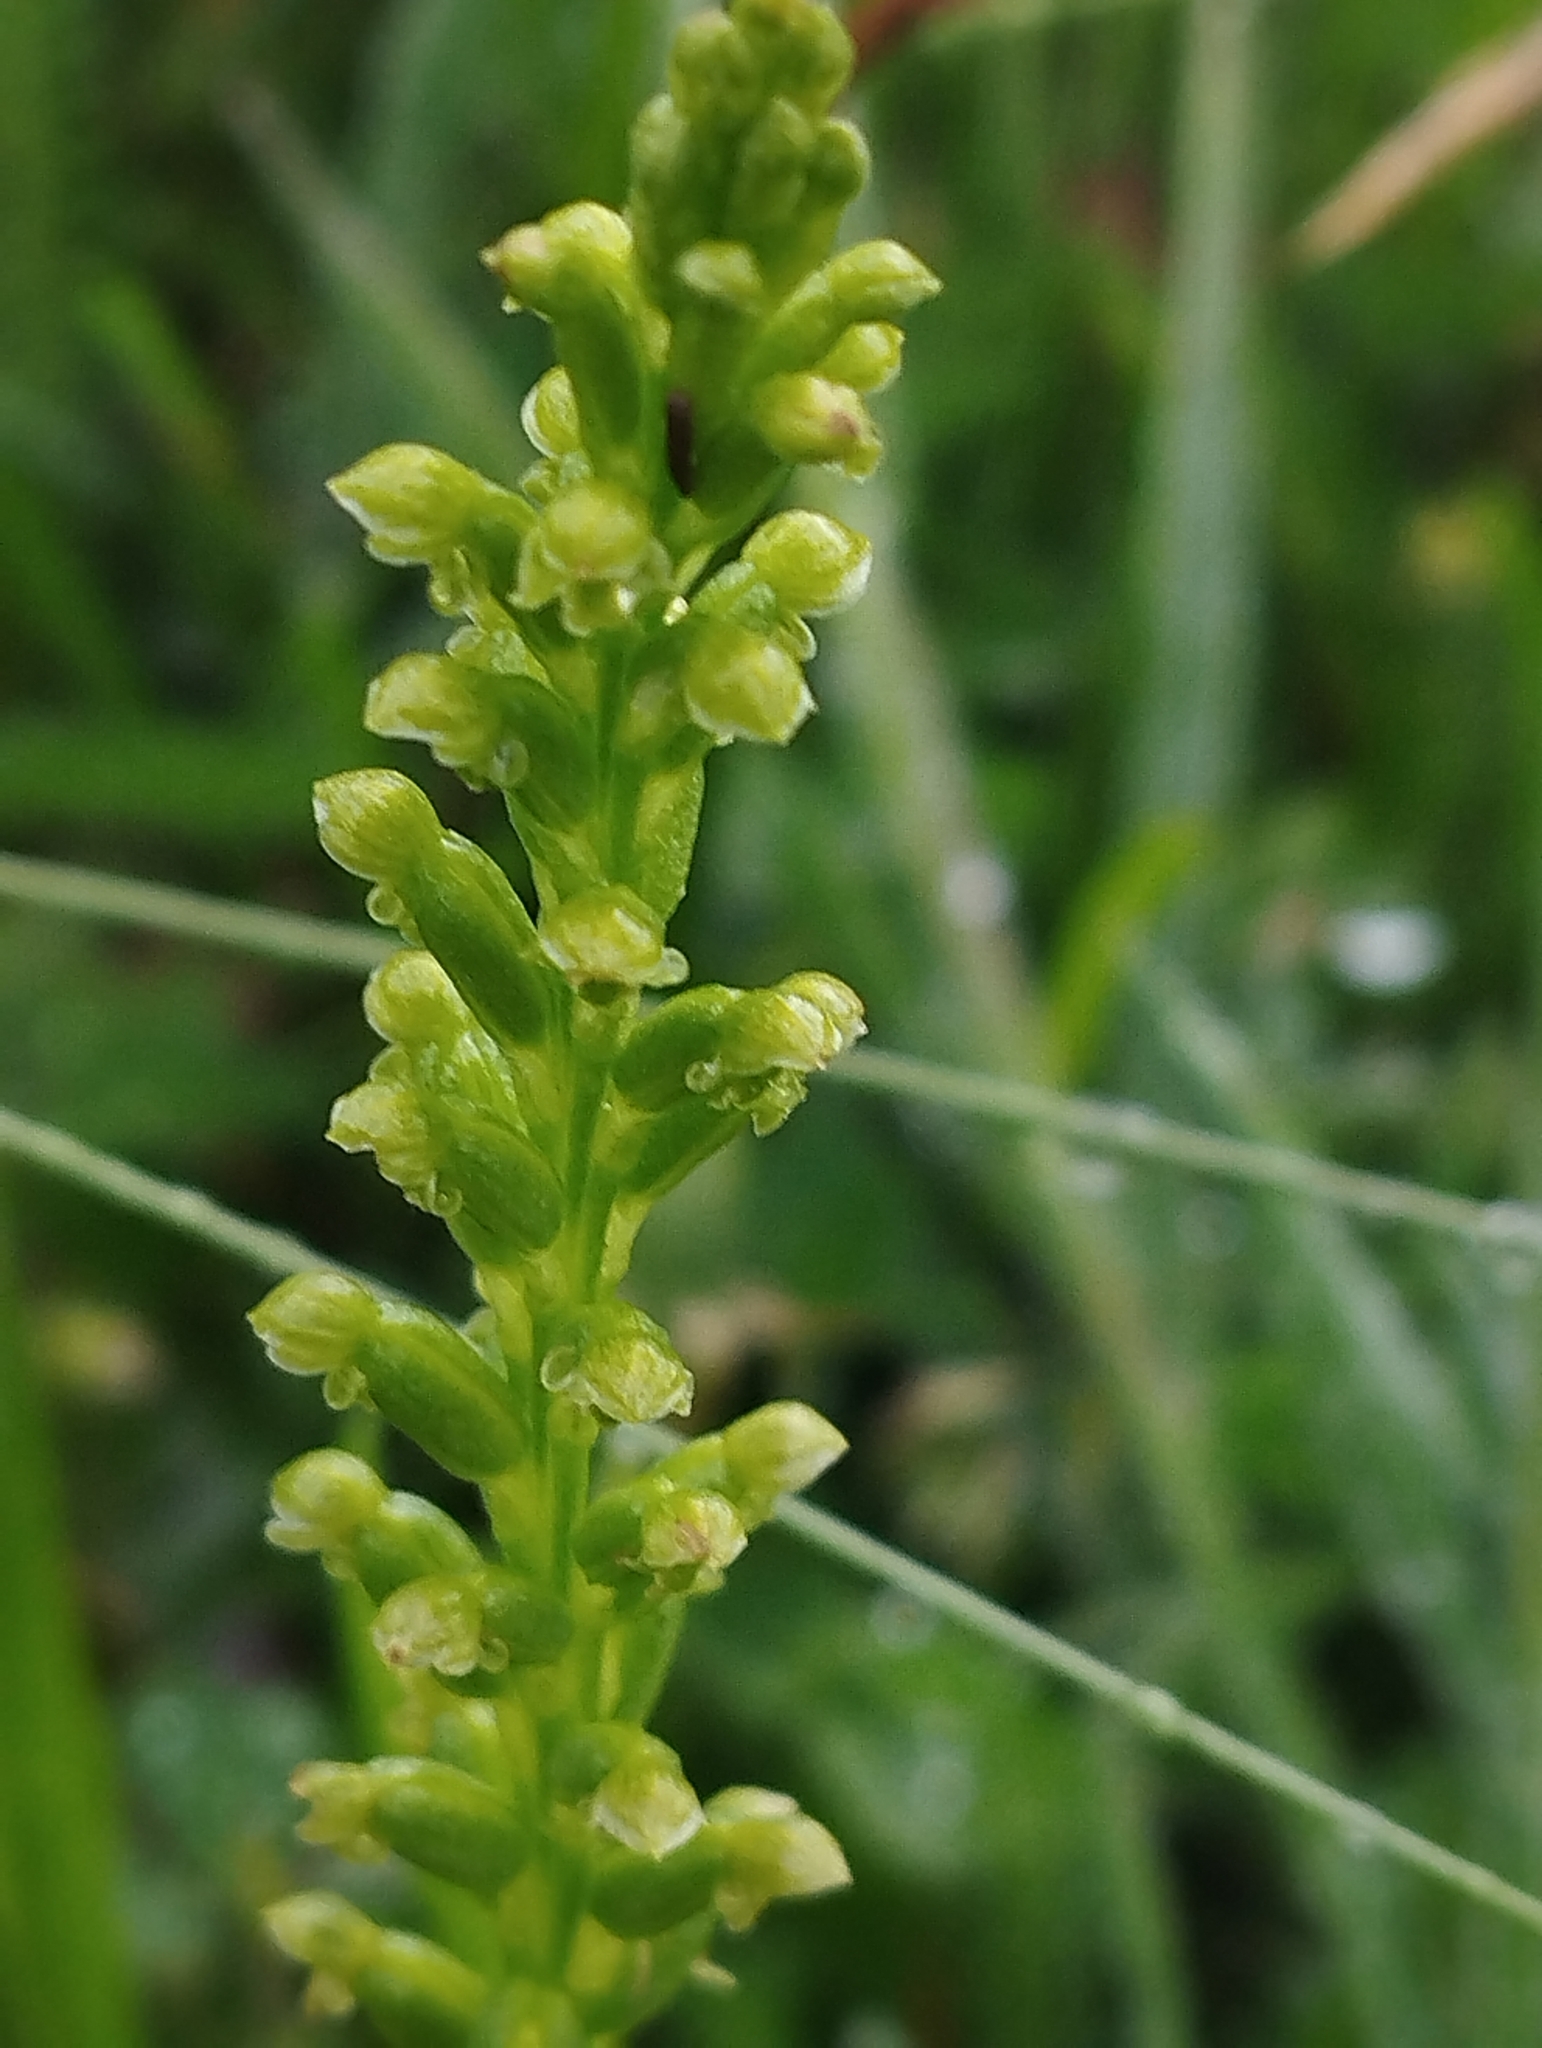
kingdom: Plantae
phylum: Tracheophyta
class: Liliopsida
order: Asparagales
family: Orchidaceae
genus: Microtis
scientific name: Microtis unifolia
